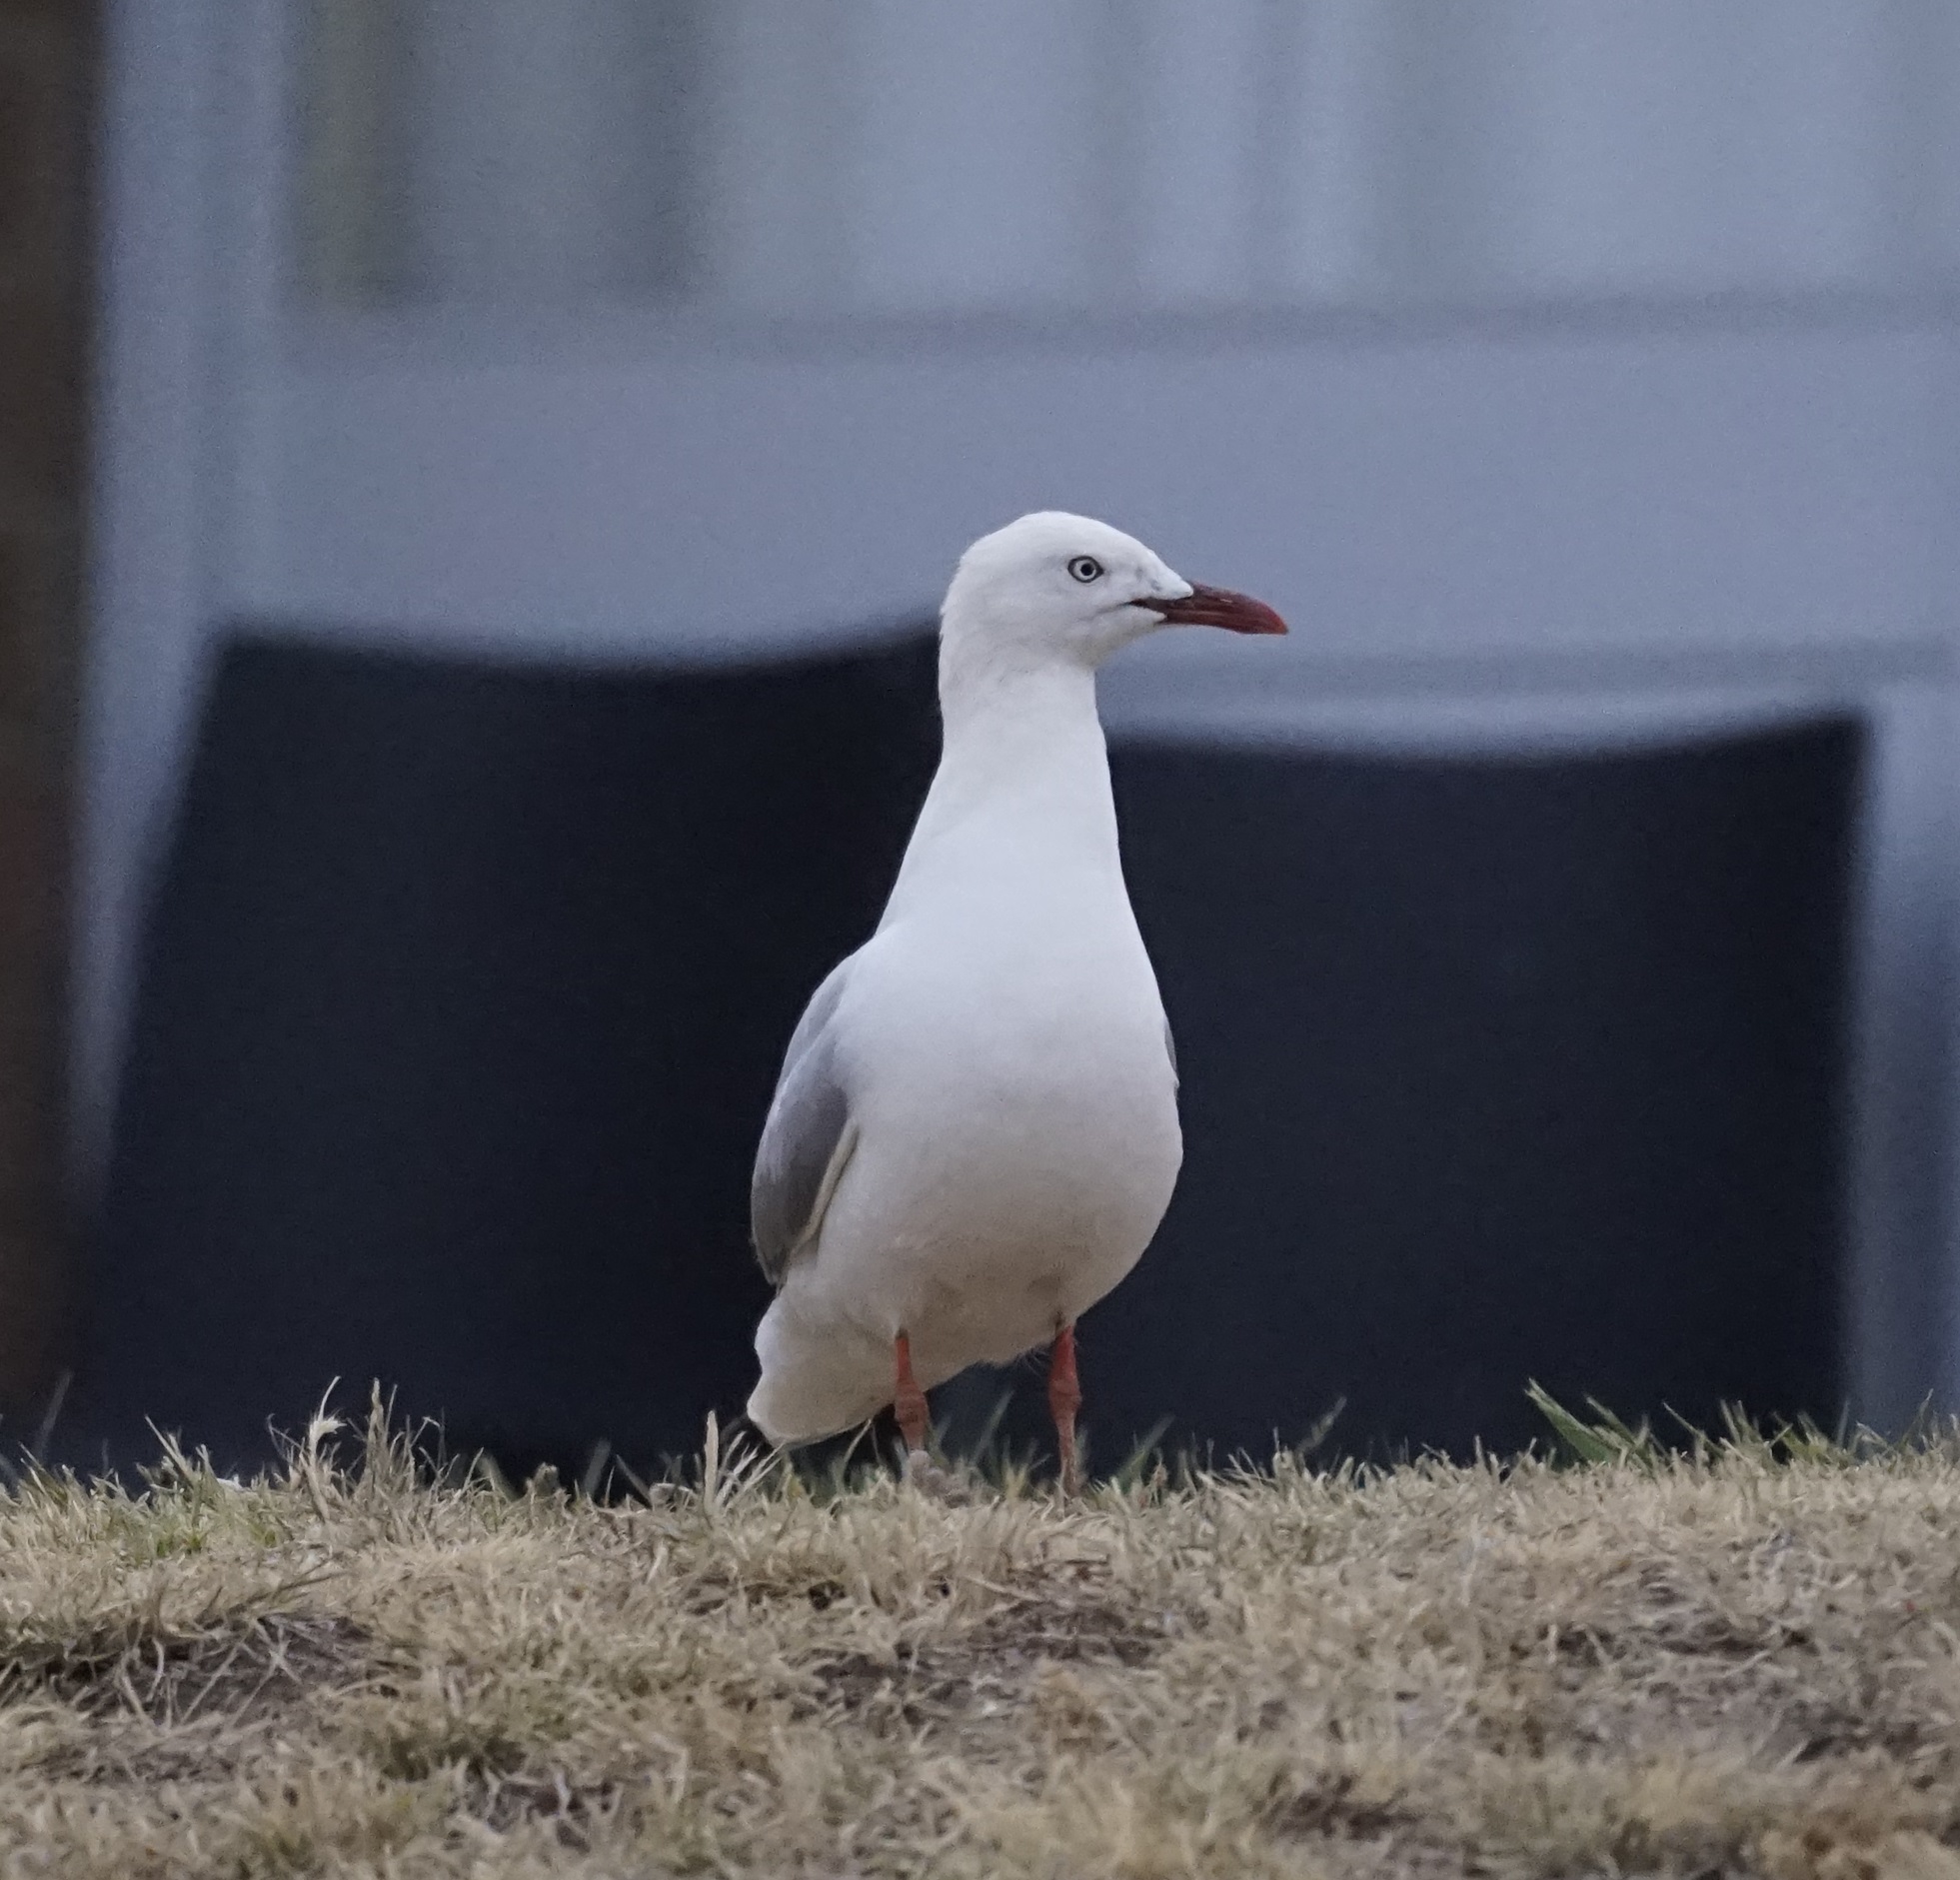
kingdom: Animalia
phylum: Chordata
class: Aves
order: Charadriiformes
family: Laridae
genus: Chroicocephalus
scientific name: Chroicocephalus novaehollandiae
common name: Silver gull
